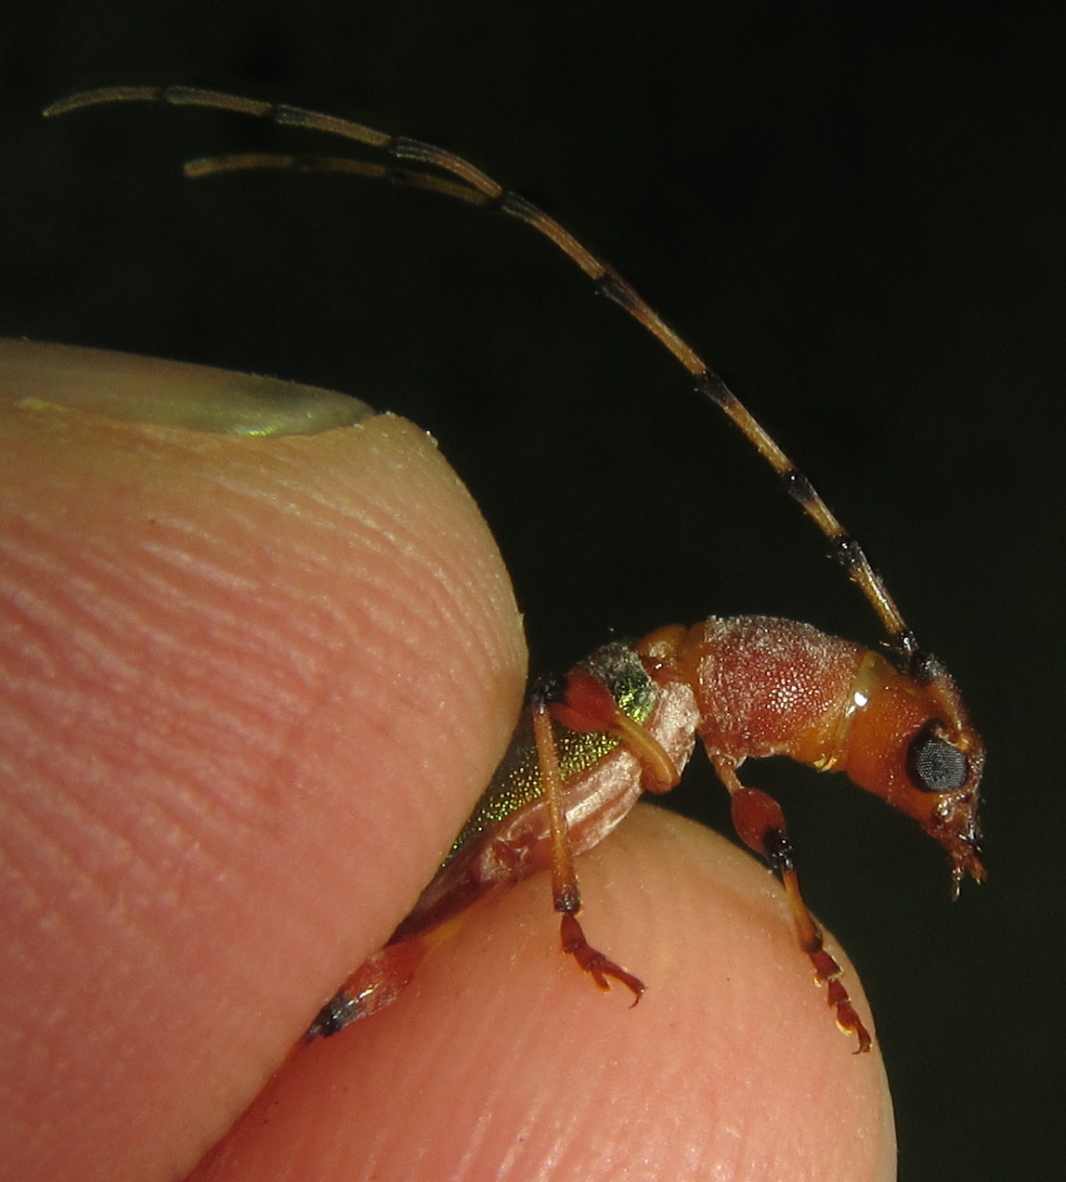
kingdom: Animalia
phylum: Arthropoda
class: Insecta
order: Coleoptera
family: Cerambycidae
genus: Cordylomera
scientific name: Cordylomera annulicornis
